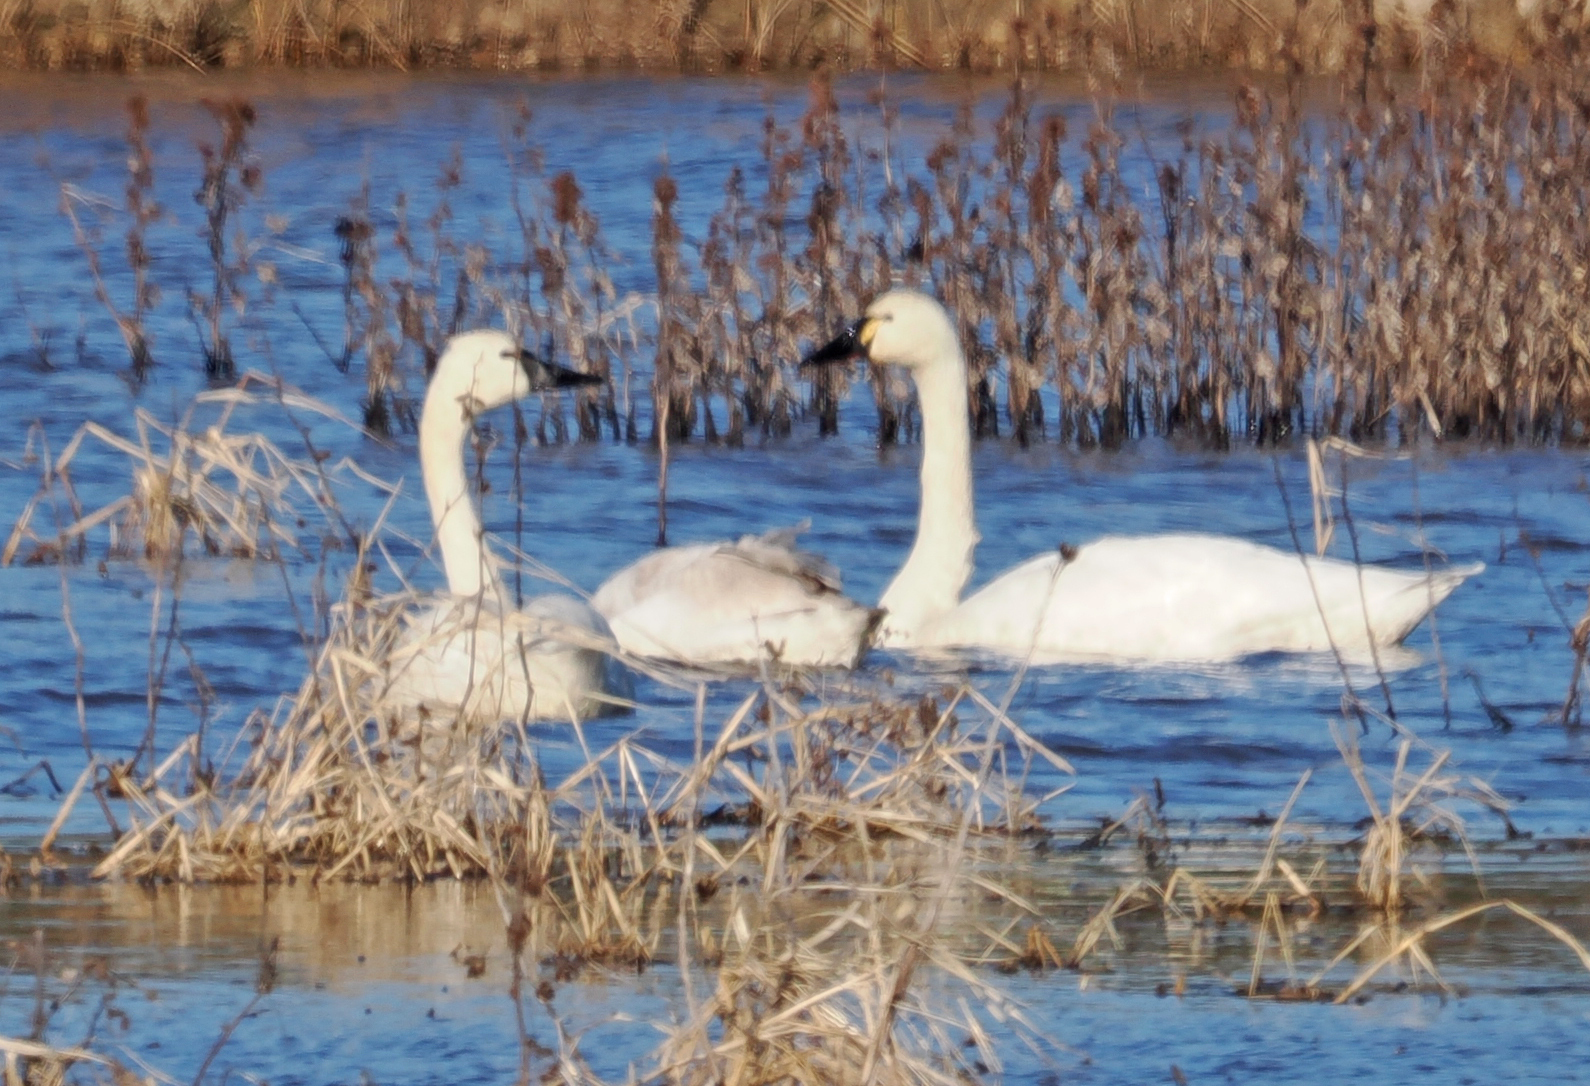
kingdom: Animalia
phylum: Chordata
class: Aves
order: Anseriformes
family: Anatidae
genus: Cygnus
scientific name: Cygnus columbianus
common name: Tundra swan
